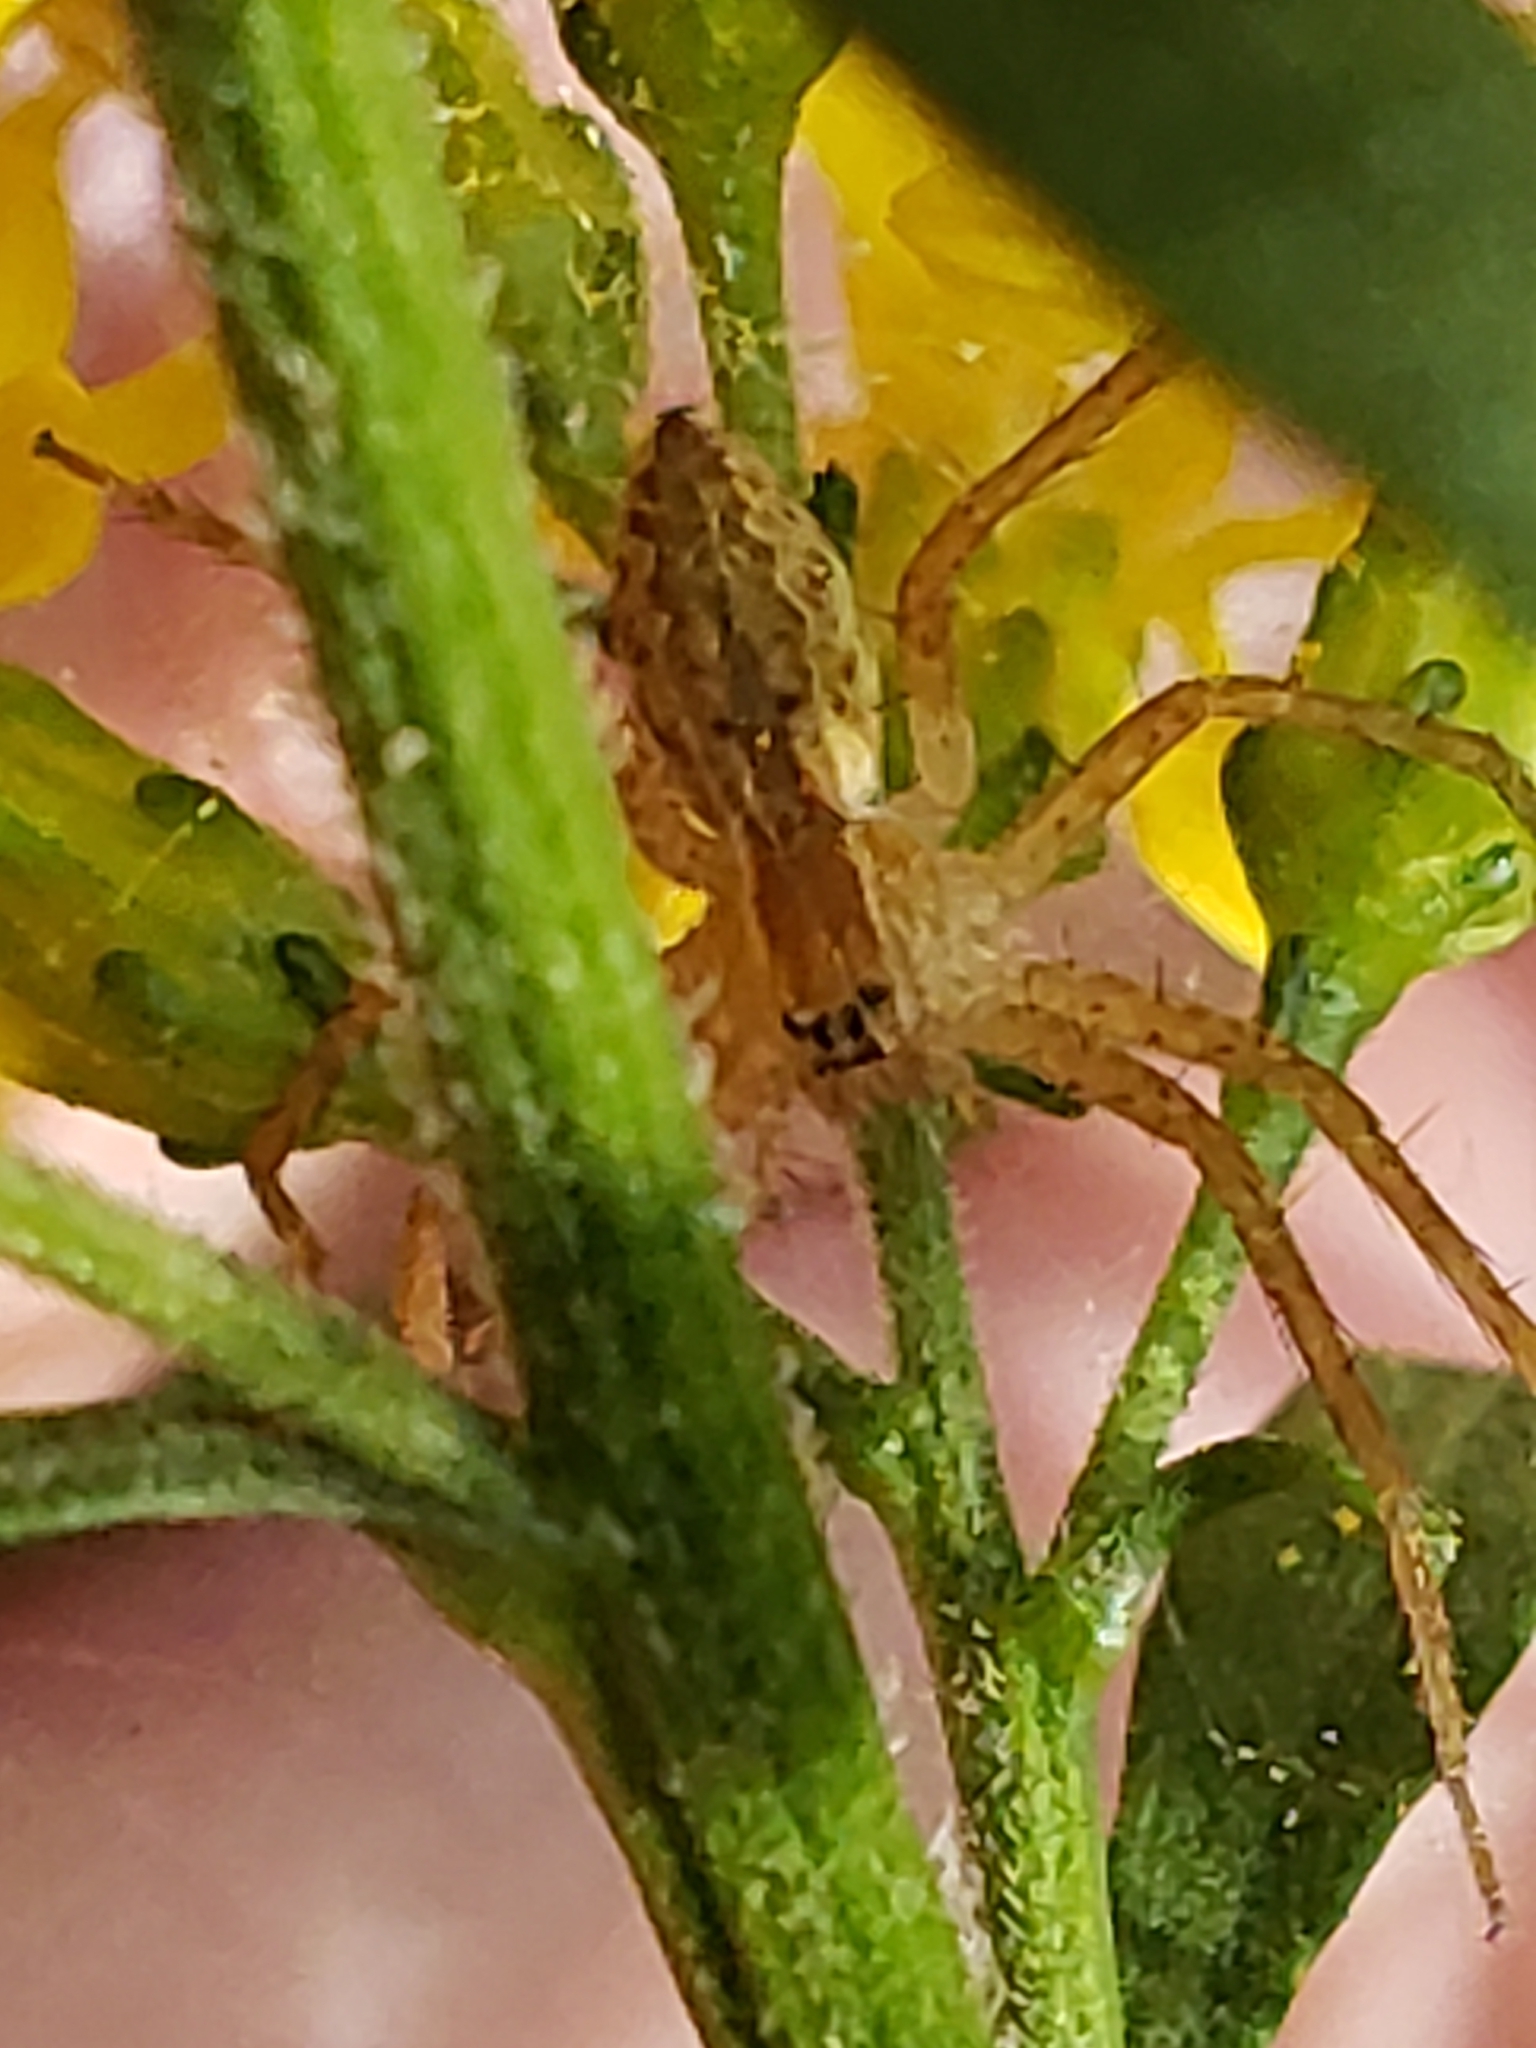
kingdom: Animalia
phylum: Arthropoda
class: Arachnida
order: Araneae
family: Pisauridae
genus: Pisaurina
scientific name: Pisaurina mira
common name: American nursery web spider
